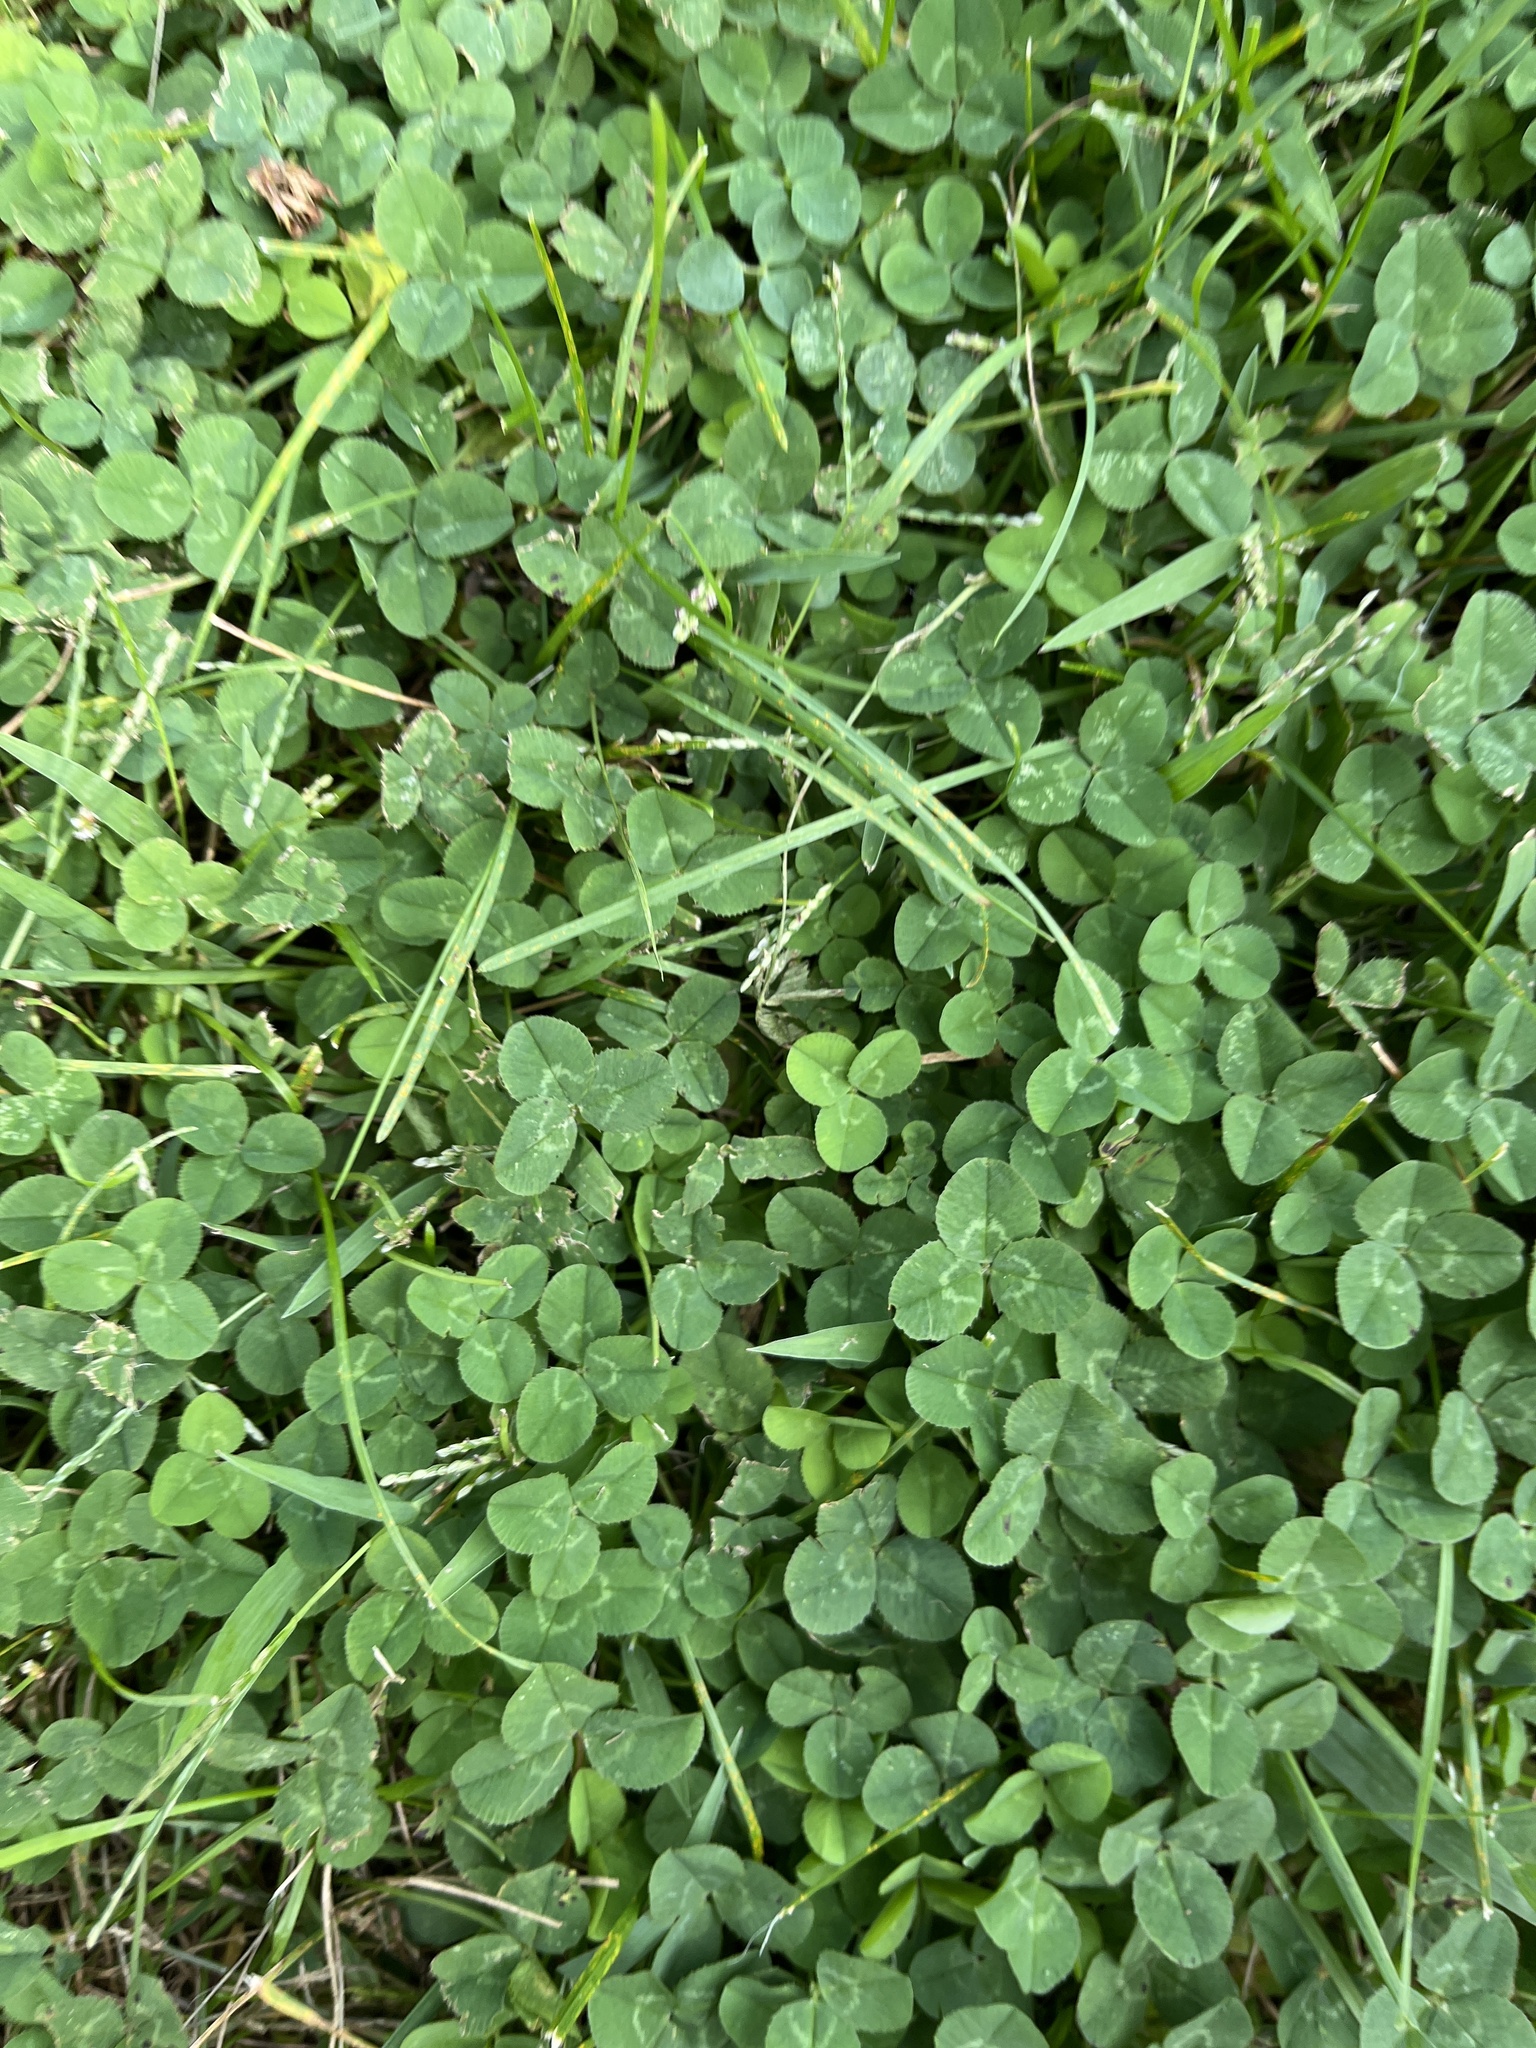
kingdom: Plantae
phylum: Tracheophyta
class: Magnoliopsida
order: Fabales
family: Fabaceae
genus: Trifolium
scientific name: Trifolium repens
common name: White clover
